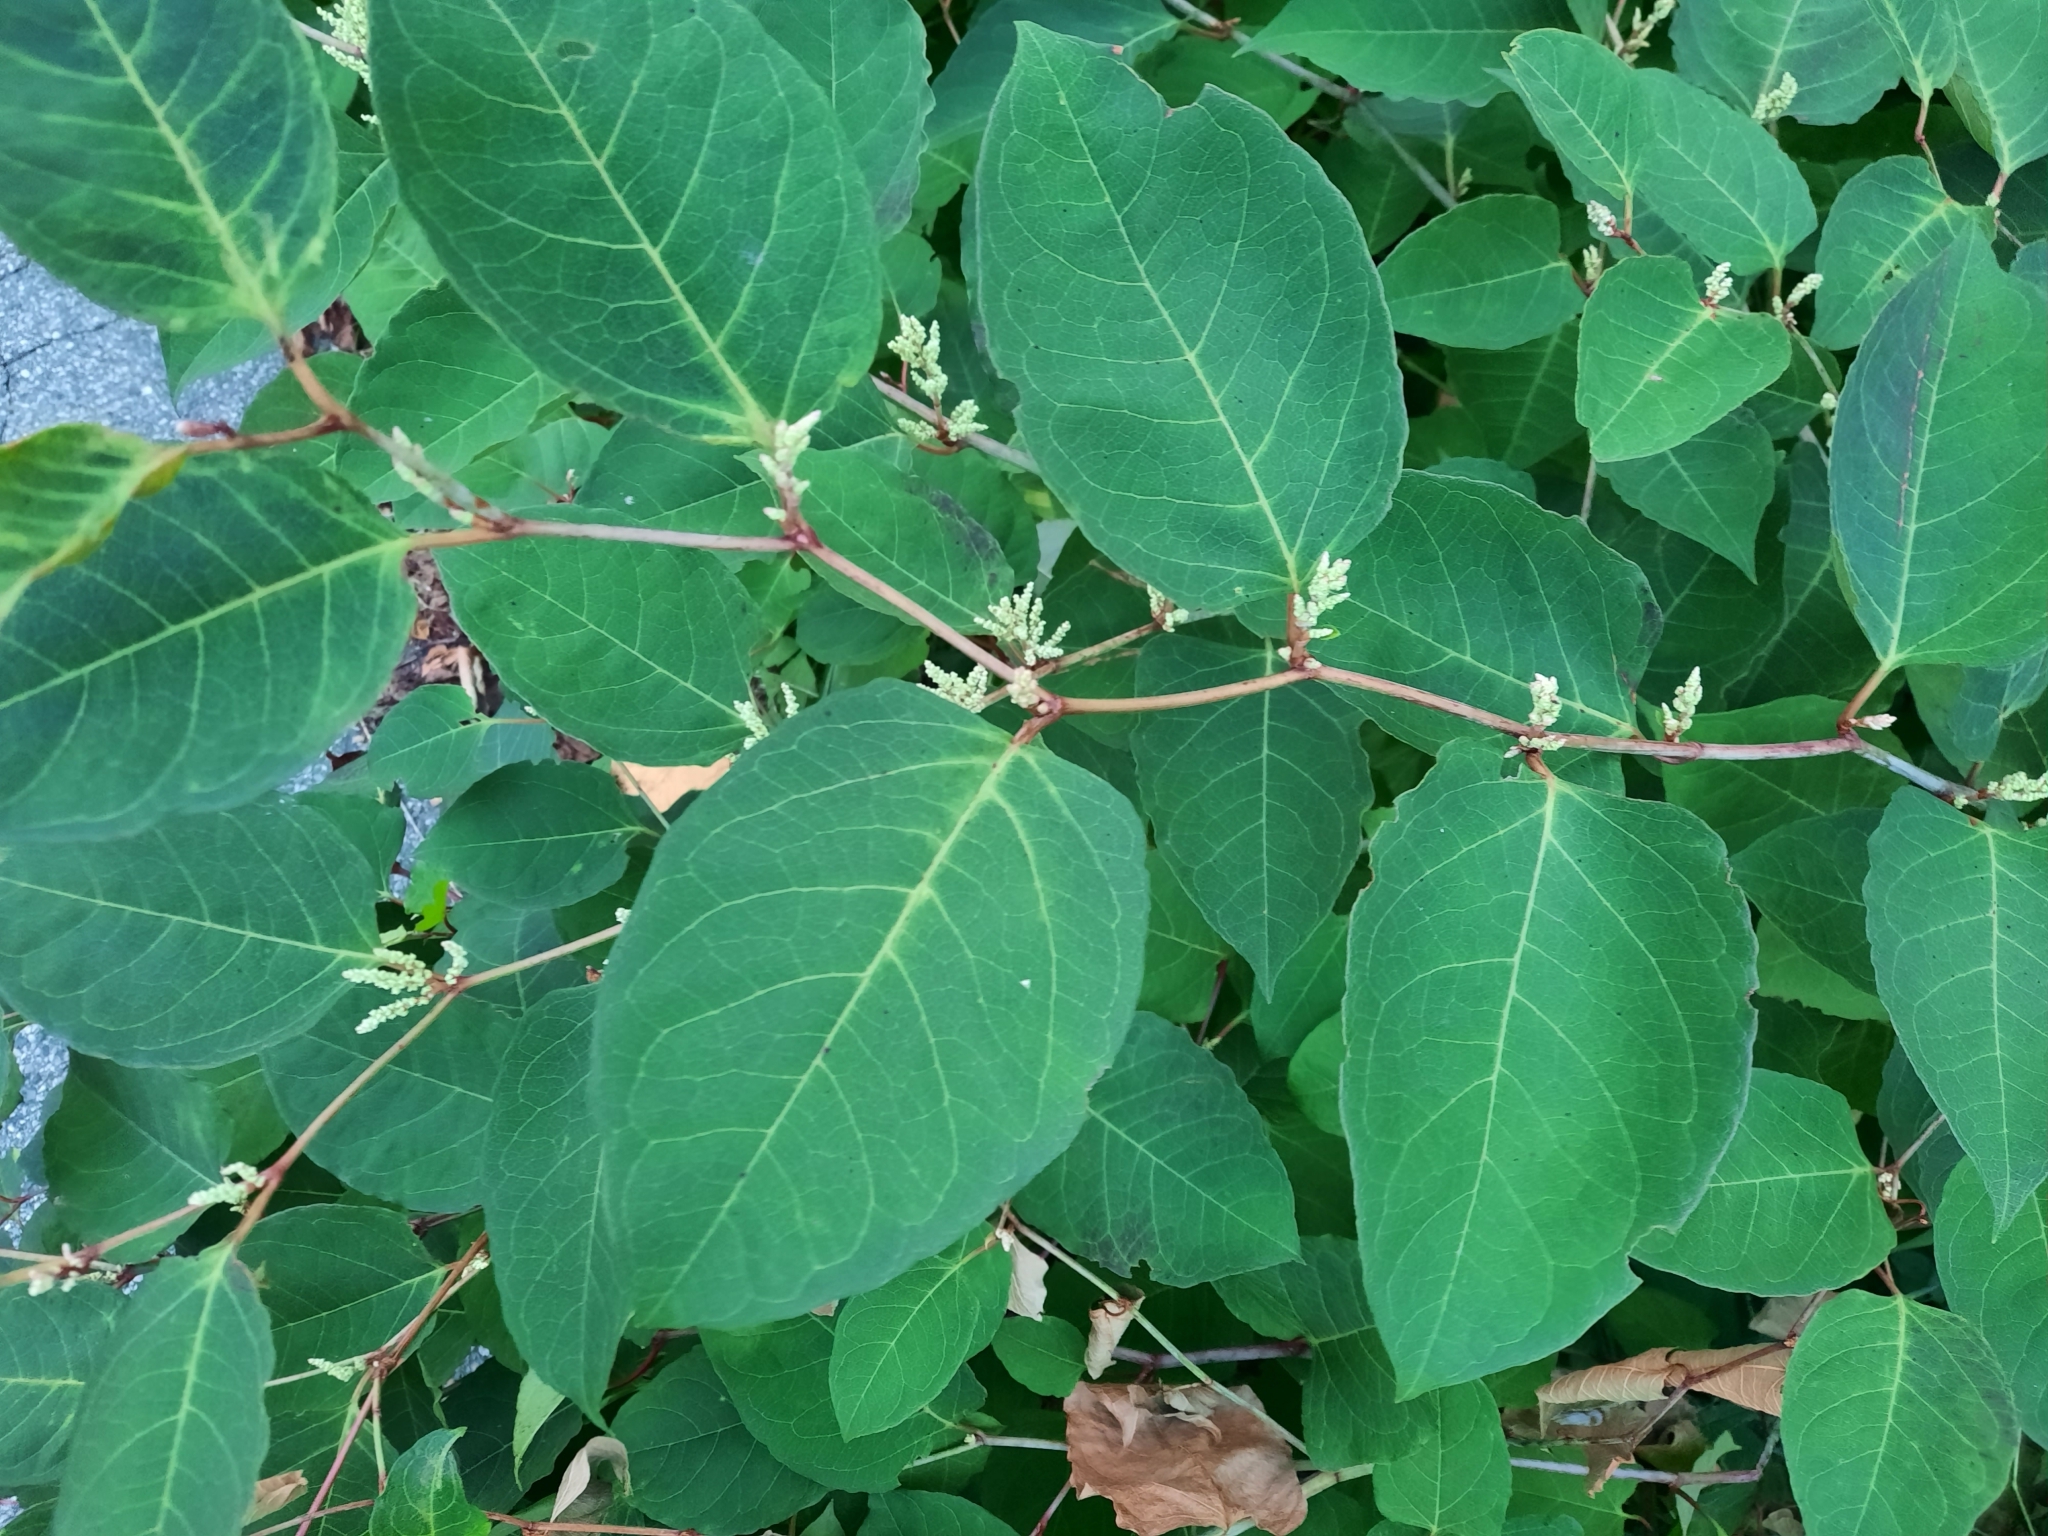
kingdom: Plantae
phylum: Tracheophyta
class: Magnoliopsida
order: Caryophyllales
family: Polygonaceae
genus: Reynoutria
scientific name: Reynoutria japonica
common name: Japanese knotweed
